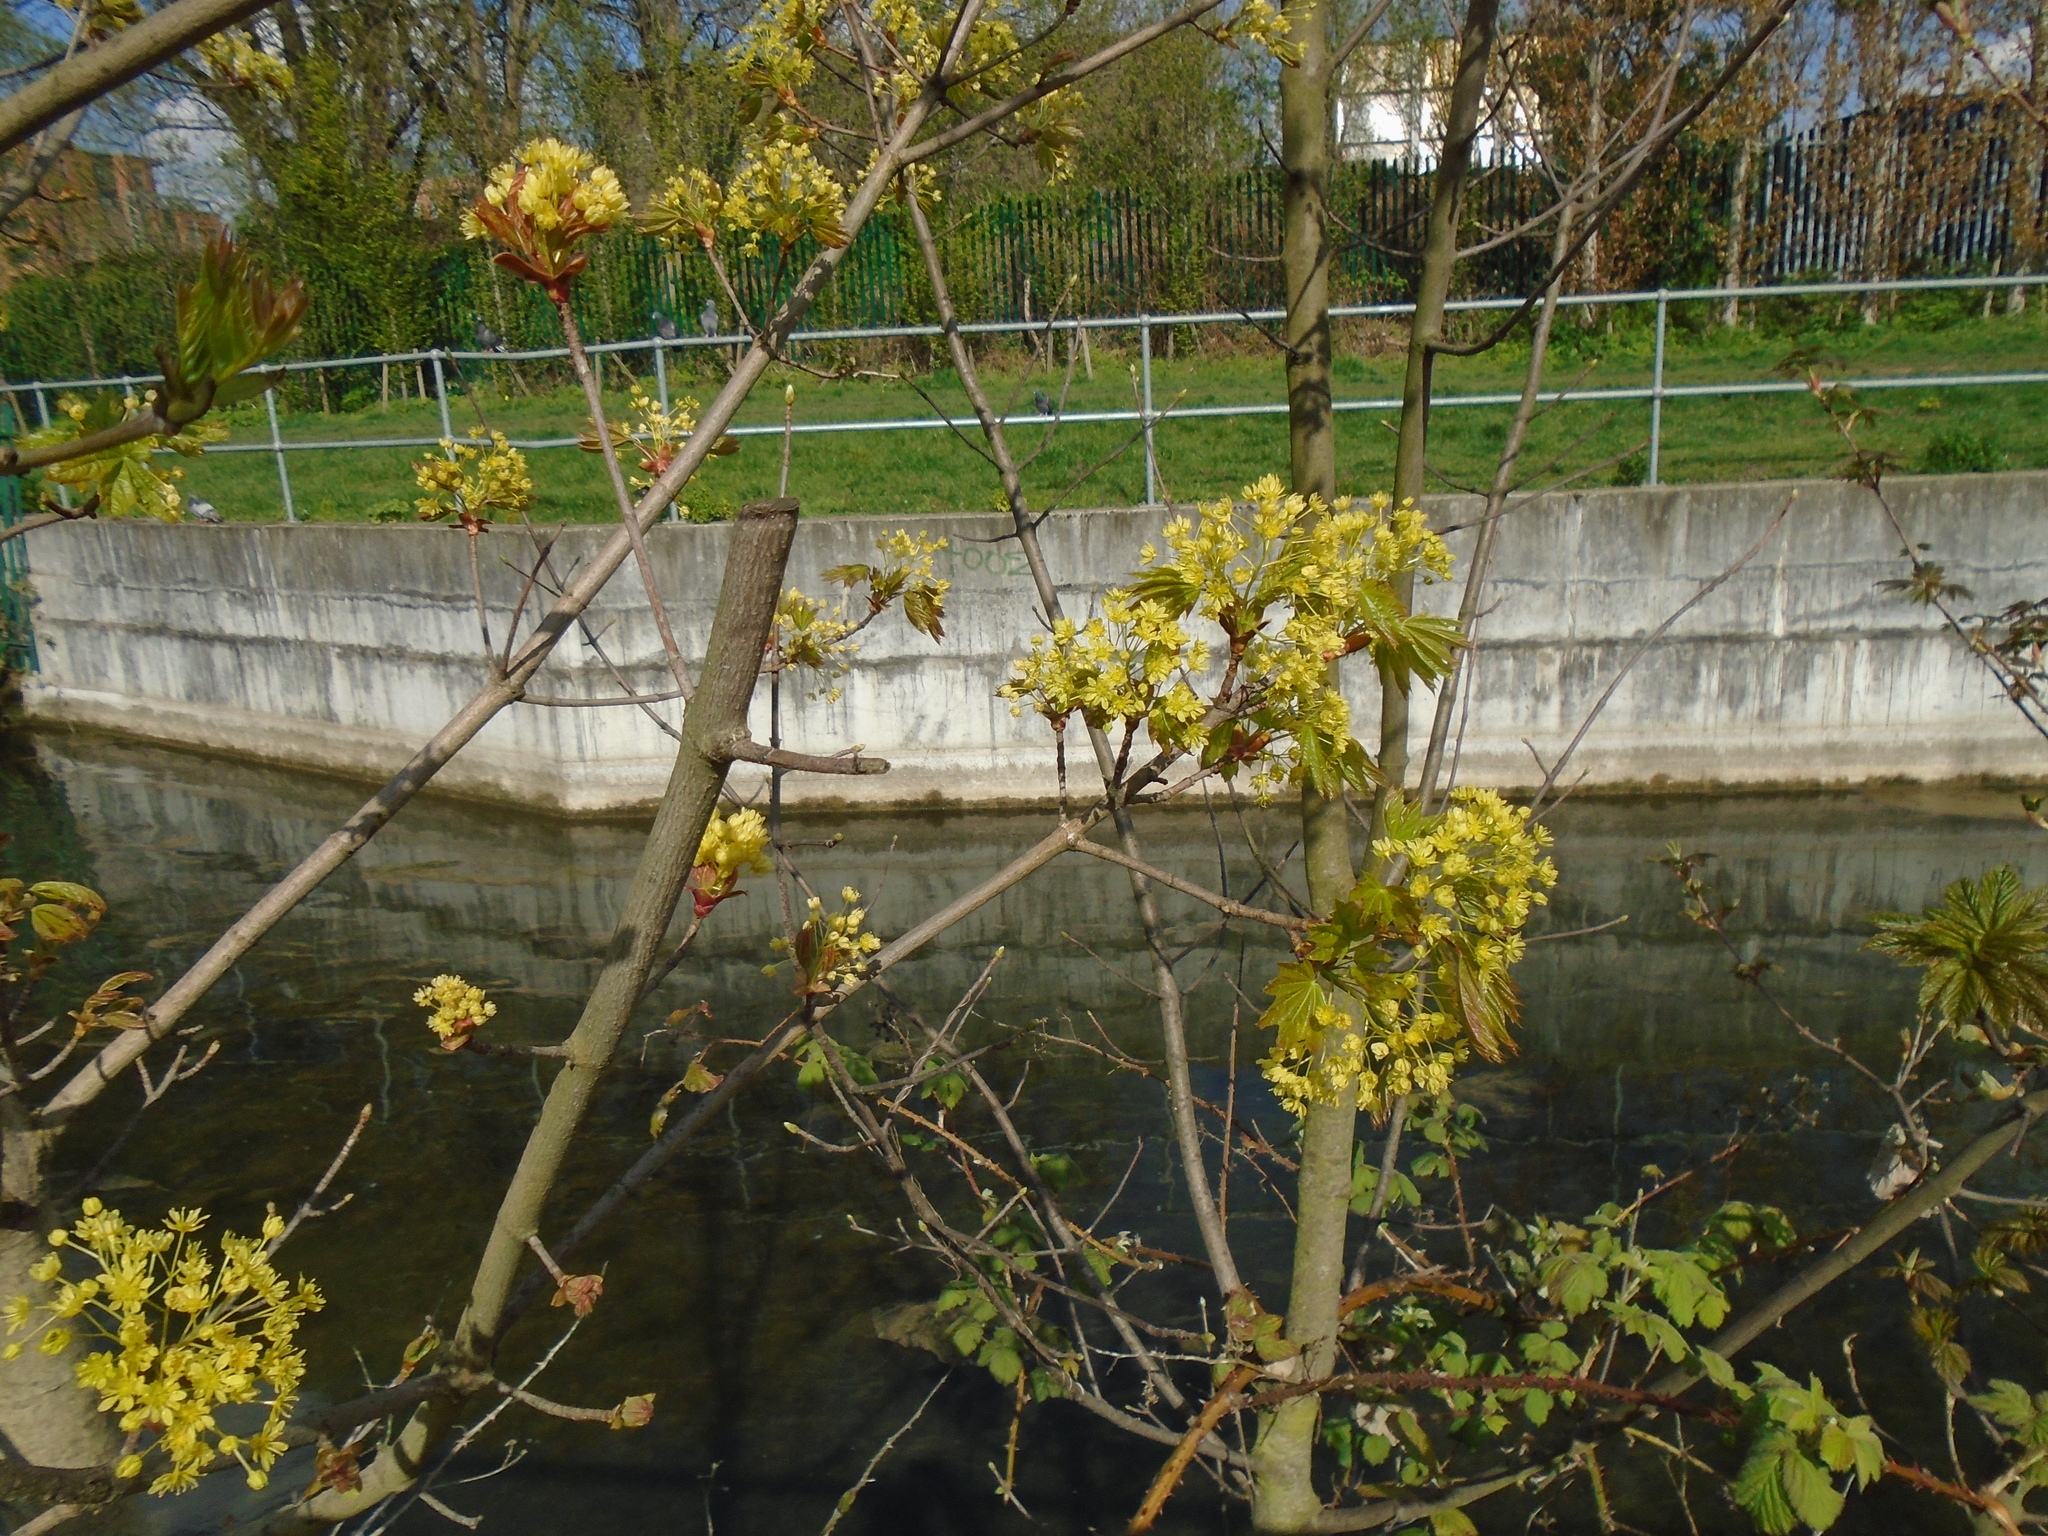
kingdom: Plantae
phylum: Tracheophyta
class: Magnoliopsida
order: Sapindales
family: Sapindaceae
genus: Acer
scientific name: Acer platanoides
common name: Norway maple
